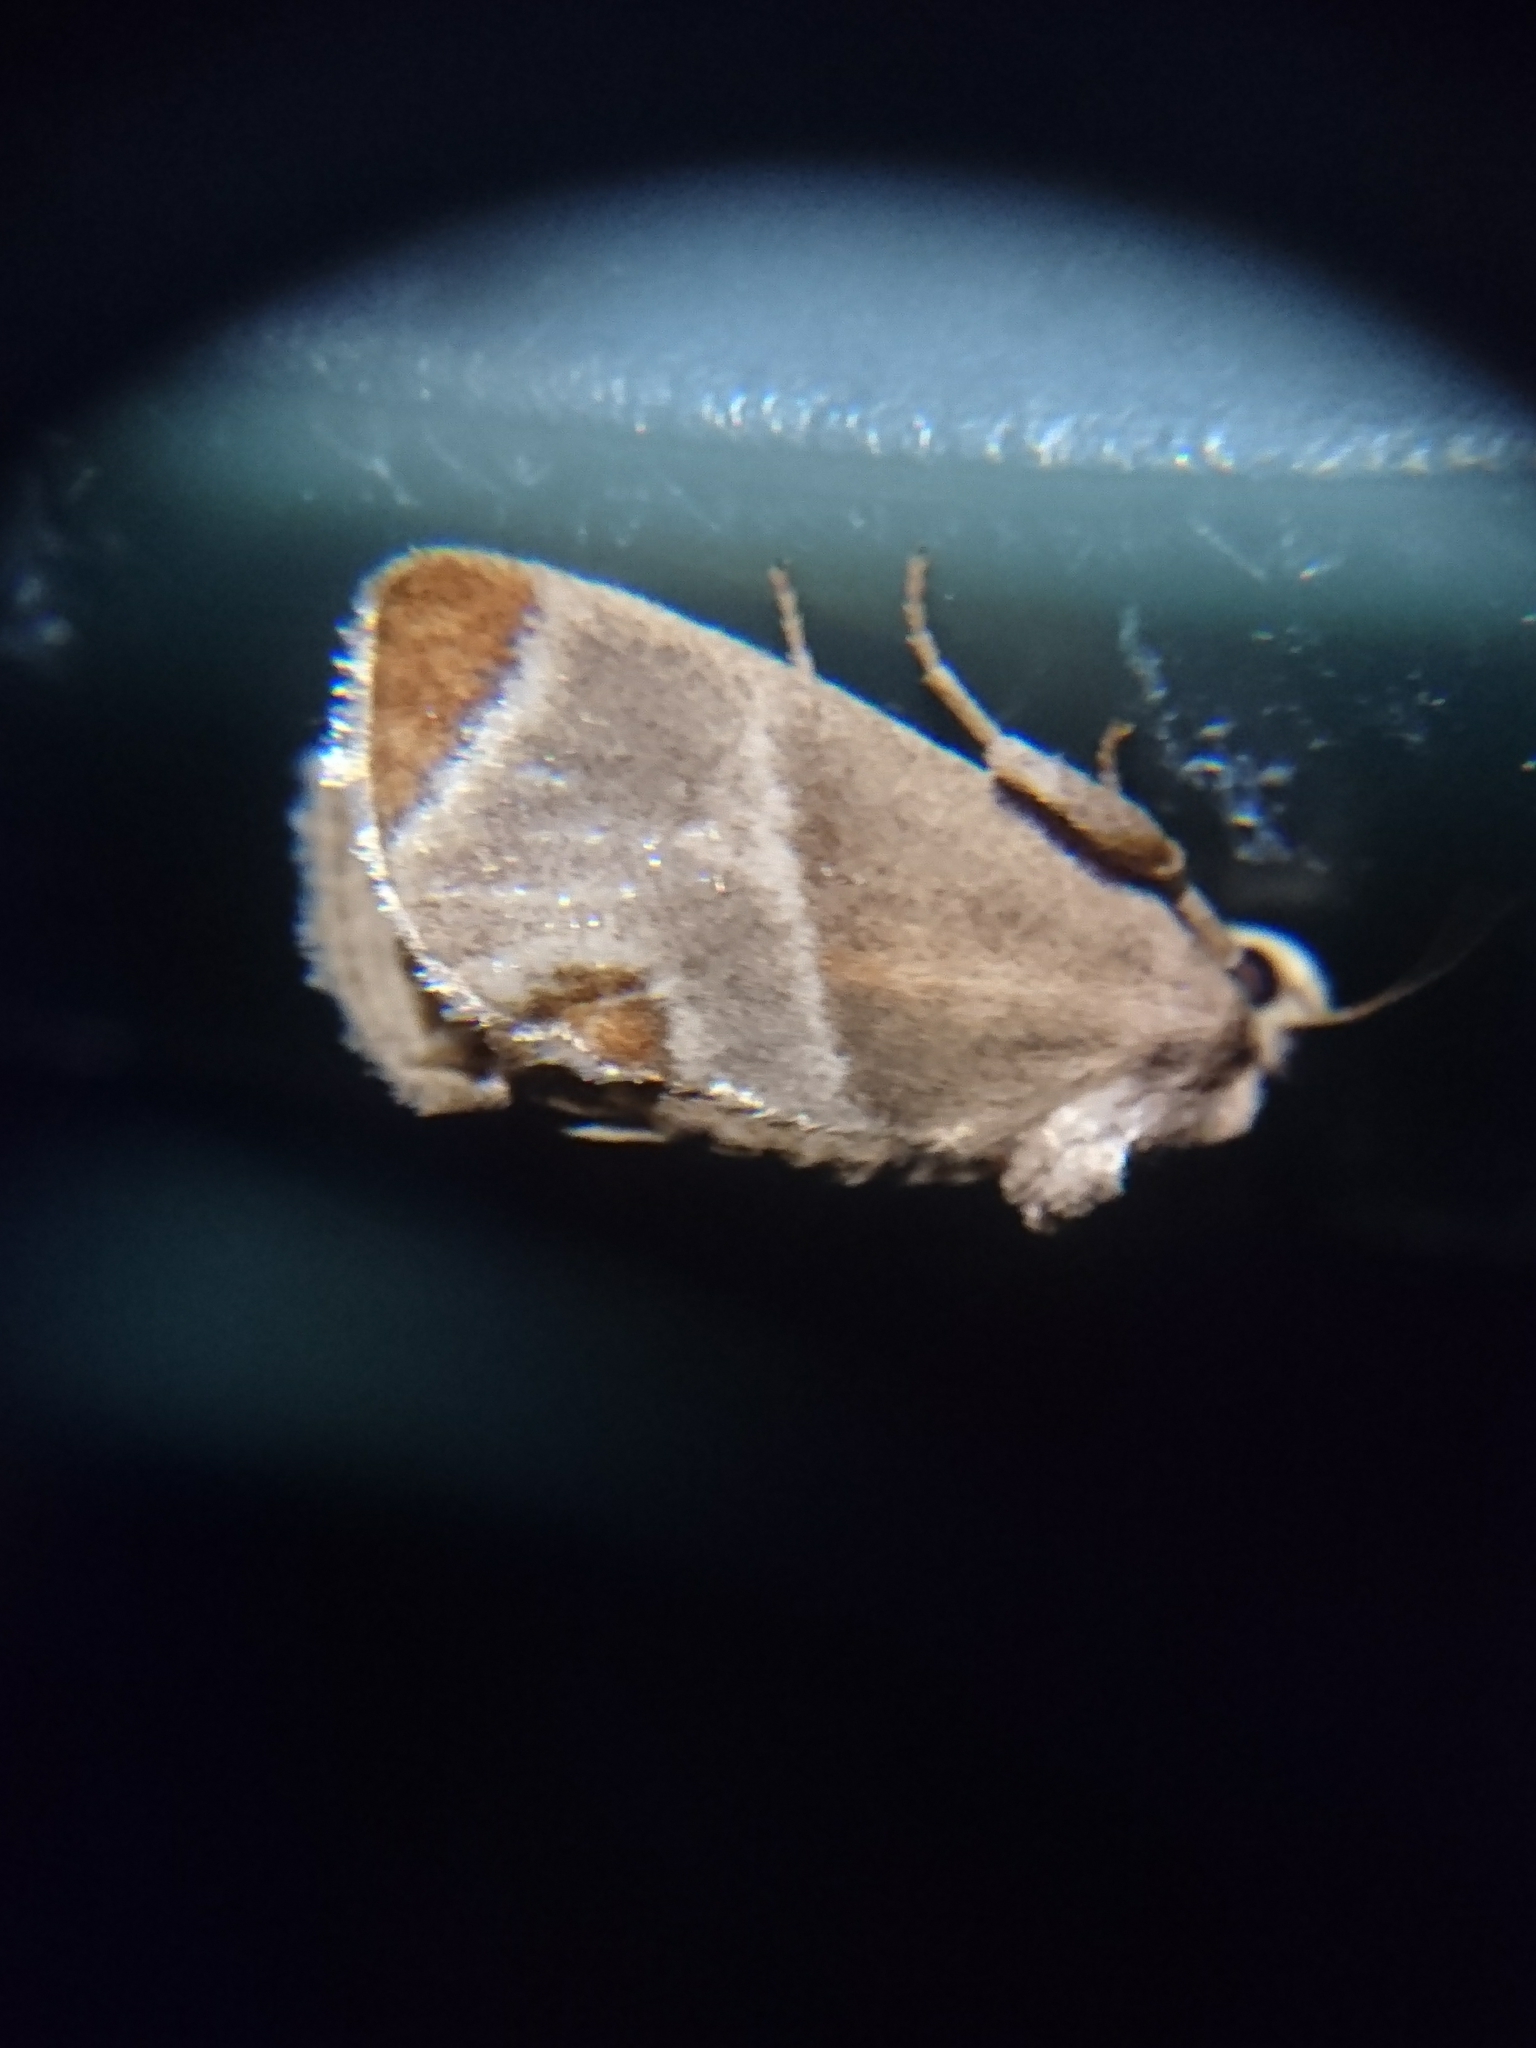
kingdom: Animalia
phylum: Arthropoda
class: Insecta
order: Lepidoptera
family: Limacodidae
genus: Apoda
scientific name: Apoda biguttata
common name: Shagreened slug moth
